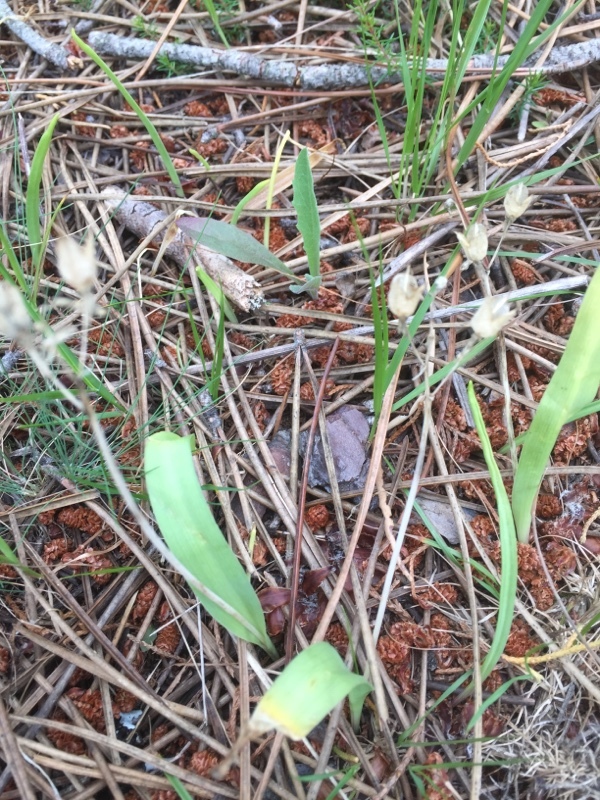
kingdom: Plantae
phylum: Tracheophyta
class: Liliopsida
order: Asparagales
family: Asparagaceae
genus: Scilla
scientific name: Scilla monophyllos
